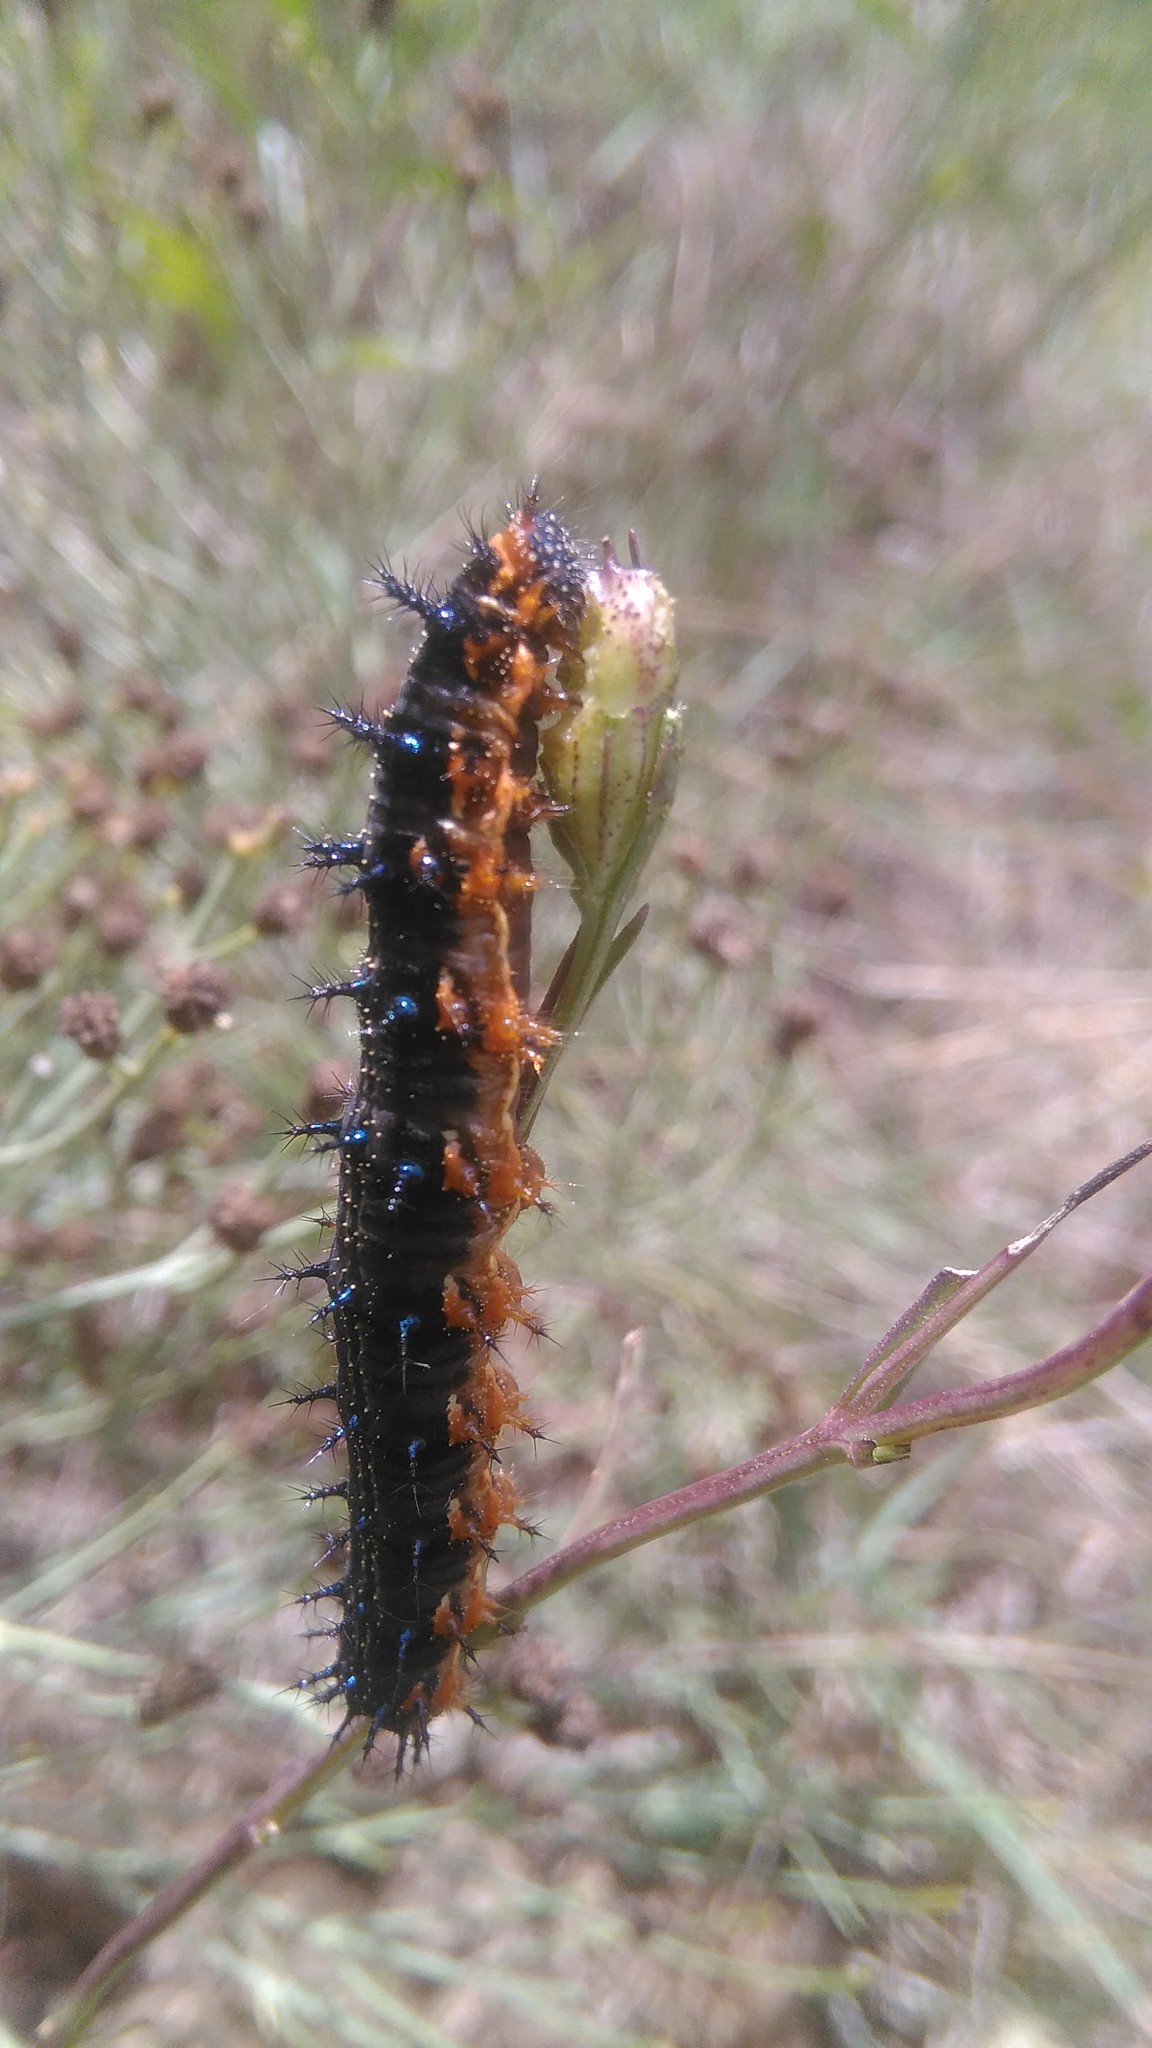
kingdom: Animalia
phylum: Arthropoda
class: Insecta
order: Lepidoptera
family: Nymphalidae
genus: Junonia
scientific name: Junonia lavinia
